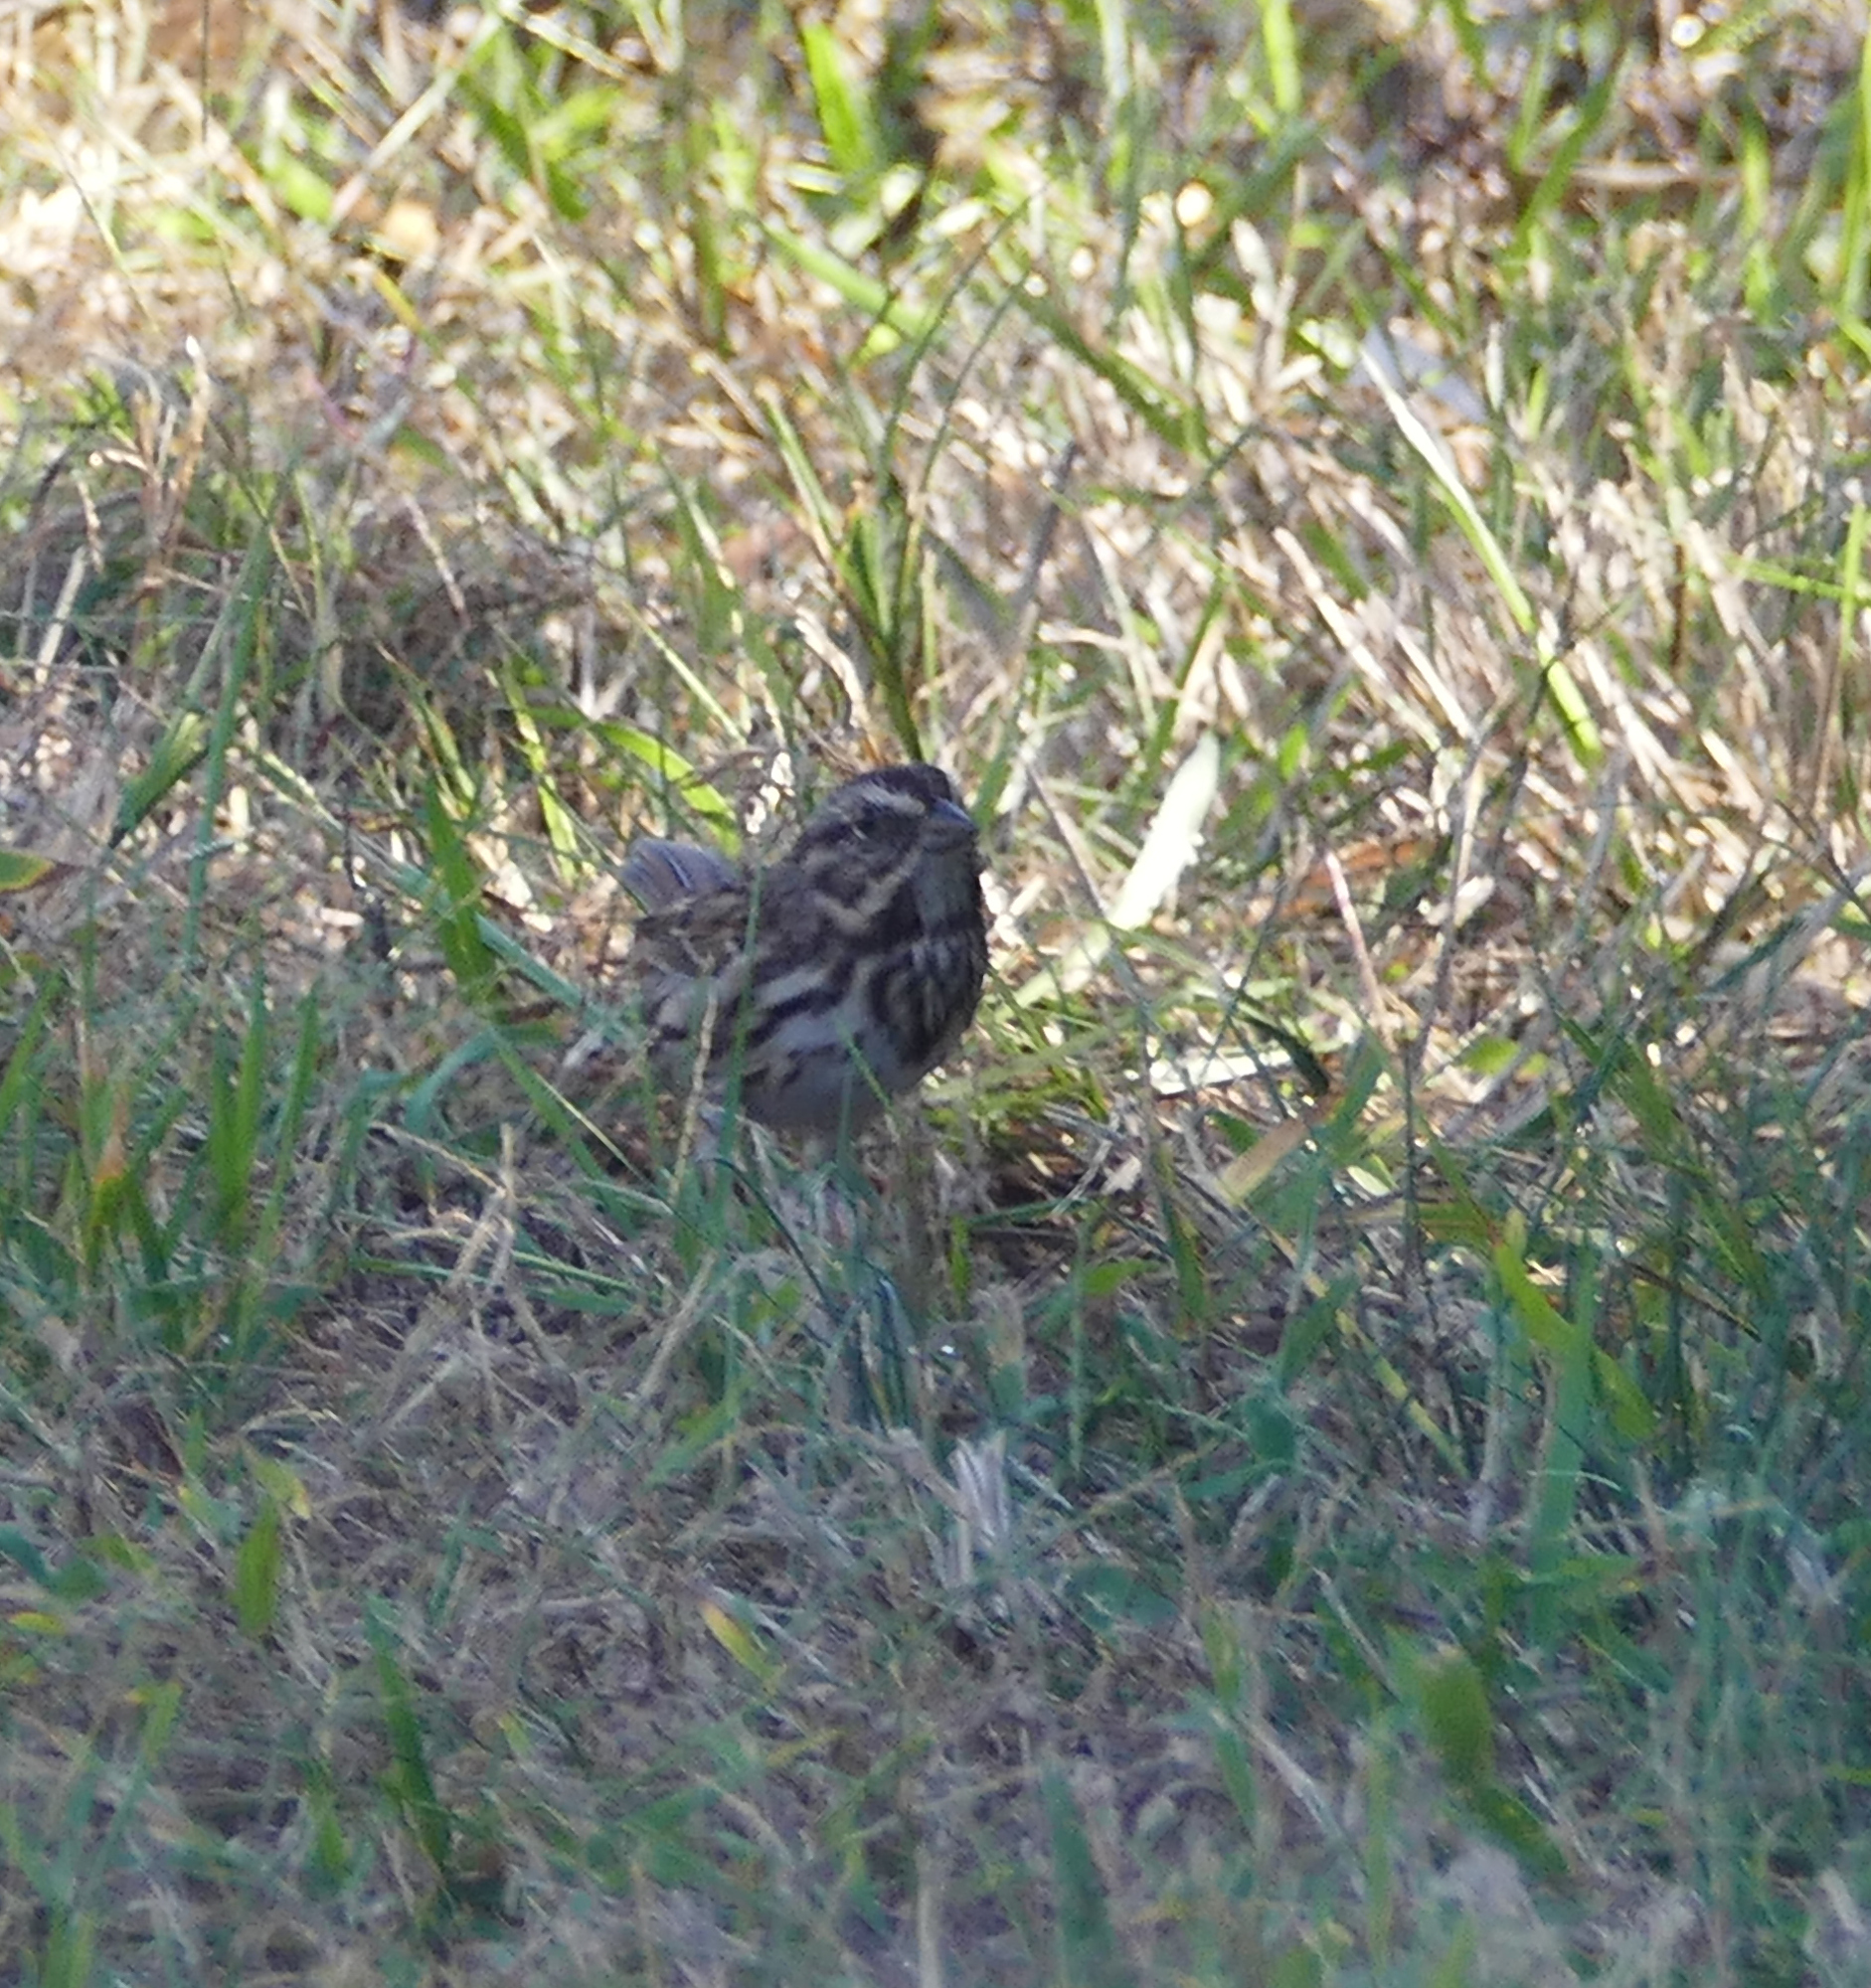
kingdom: Animalia
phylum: Chordata
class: Aves
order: Passeriformes
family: Passerellidae
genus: Melospiza
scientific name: Melospiza melodia
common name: Song sparrow
